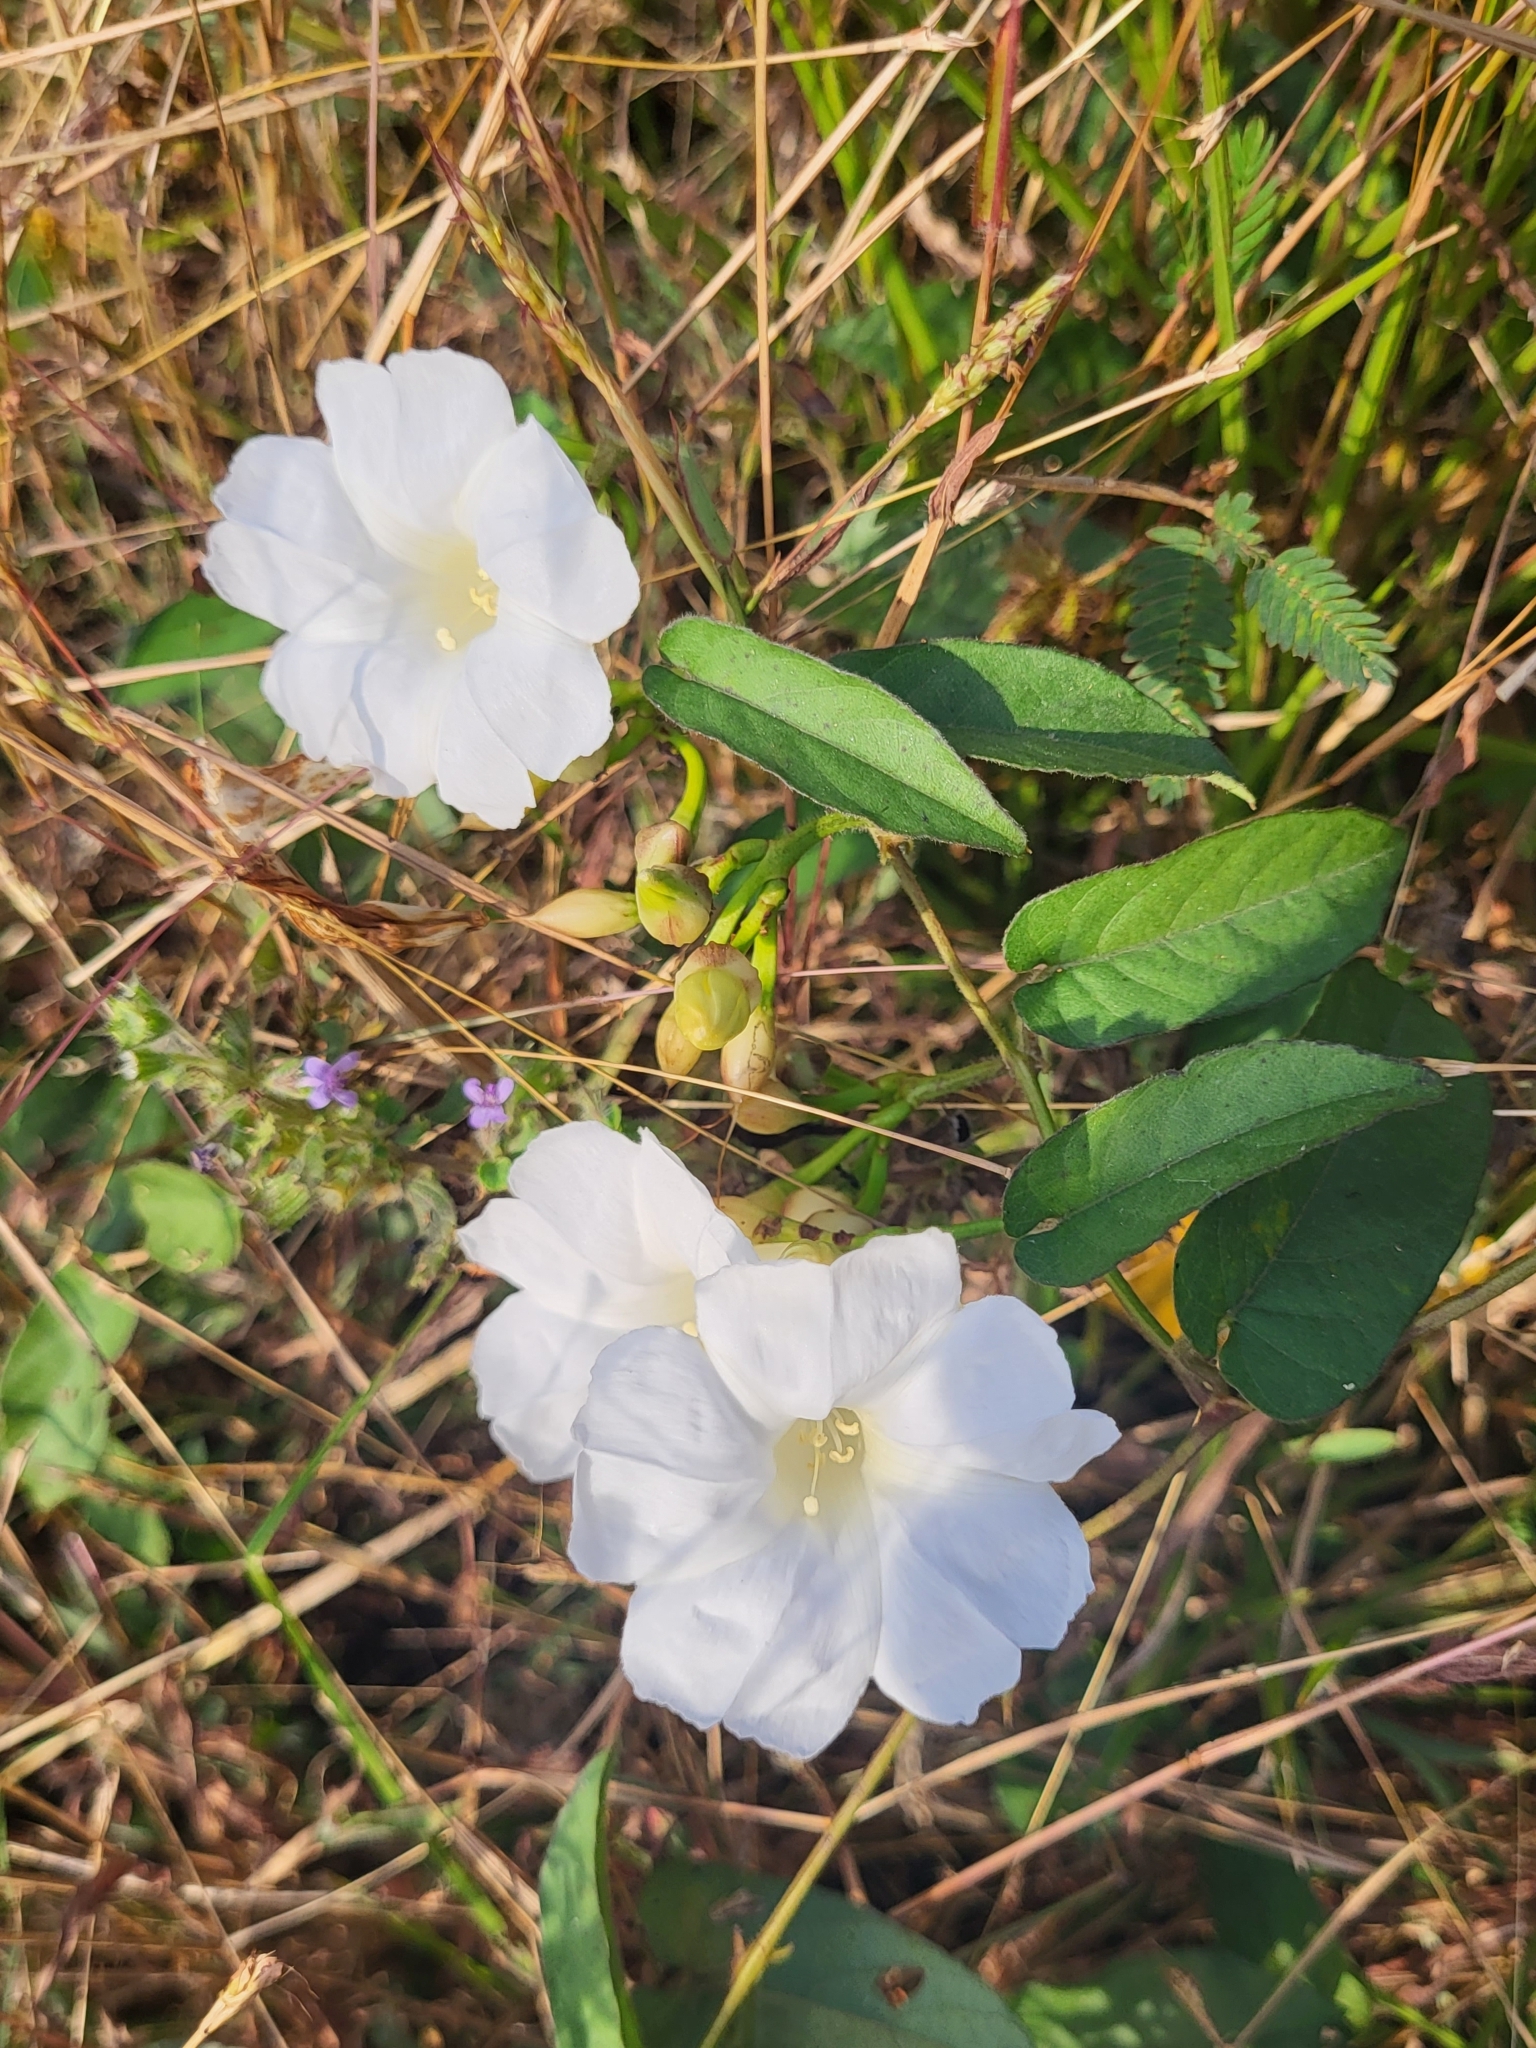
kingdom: Plantae
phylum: Tracheophyta
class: Magnoliopsida
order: Solanales
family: Convolvulaceae
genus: Operculina
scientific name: Operculina turpethum
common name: Transparent wood-rose
